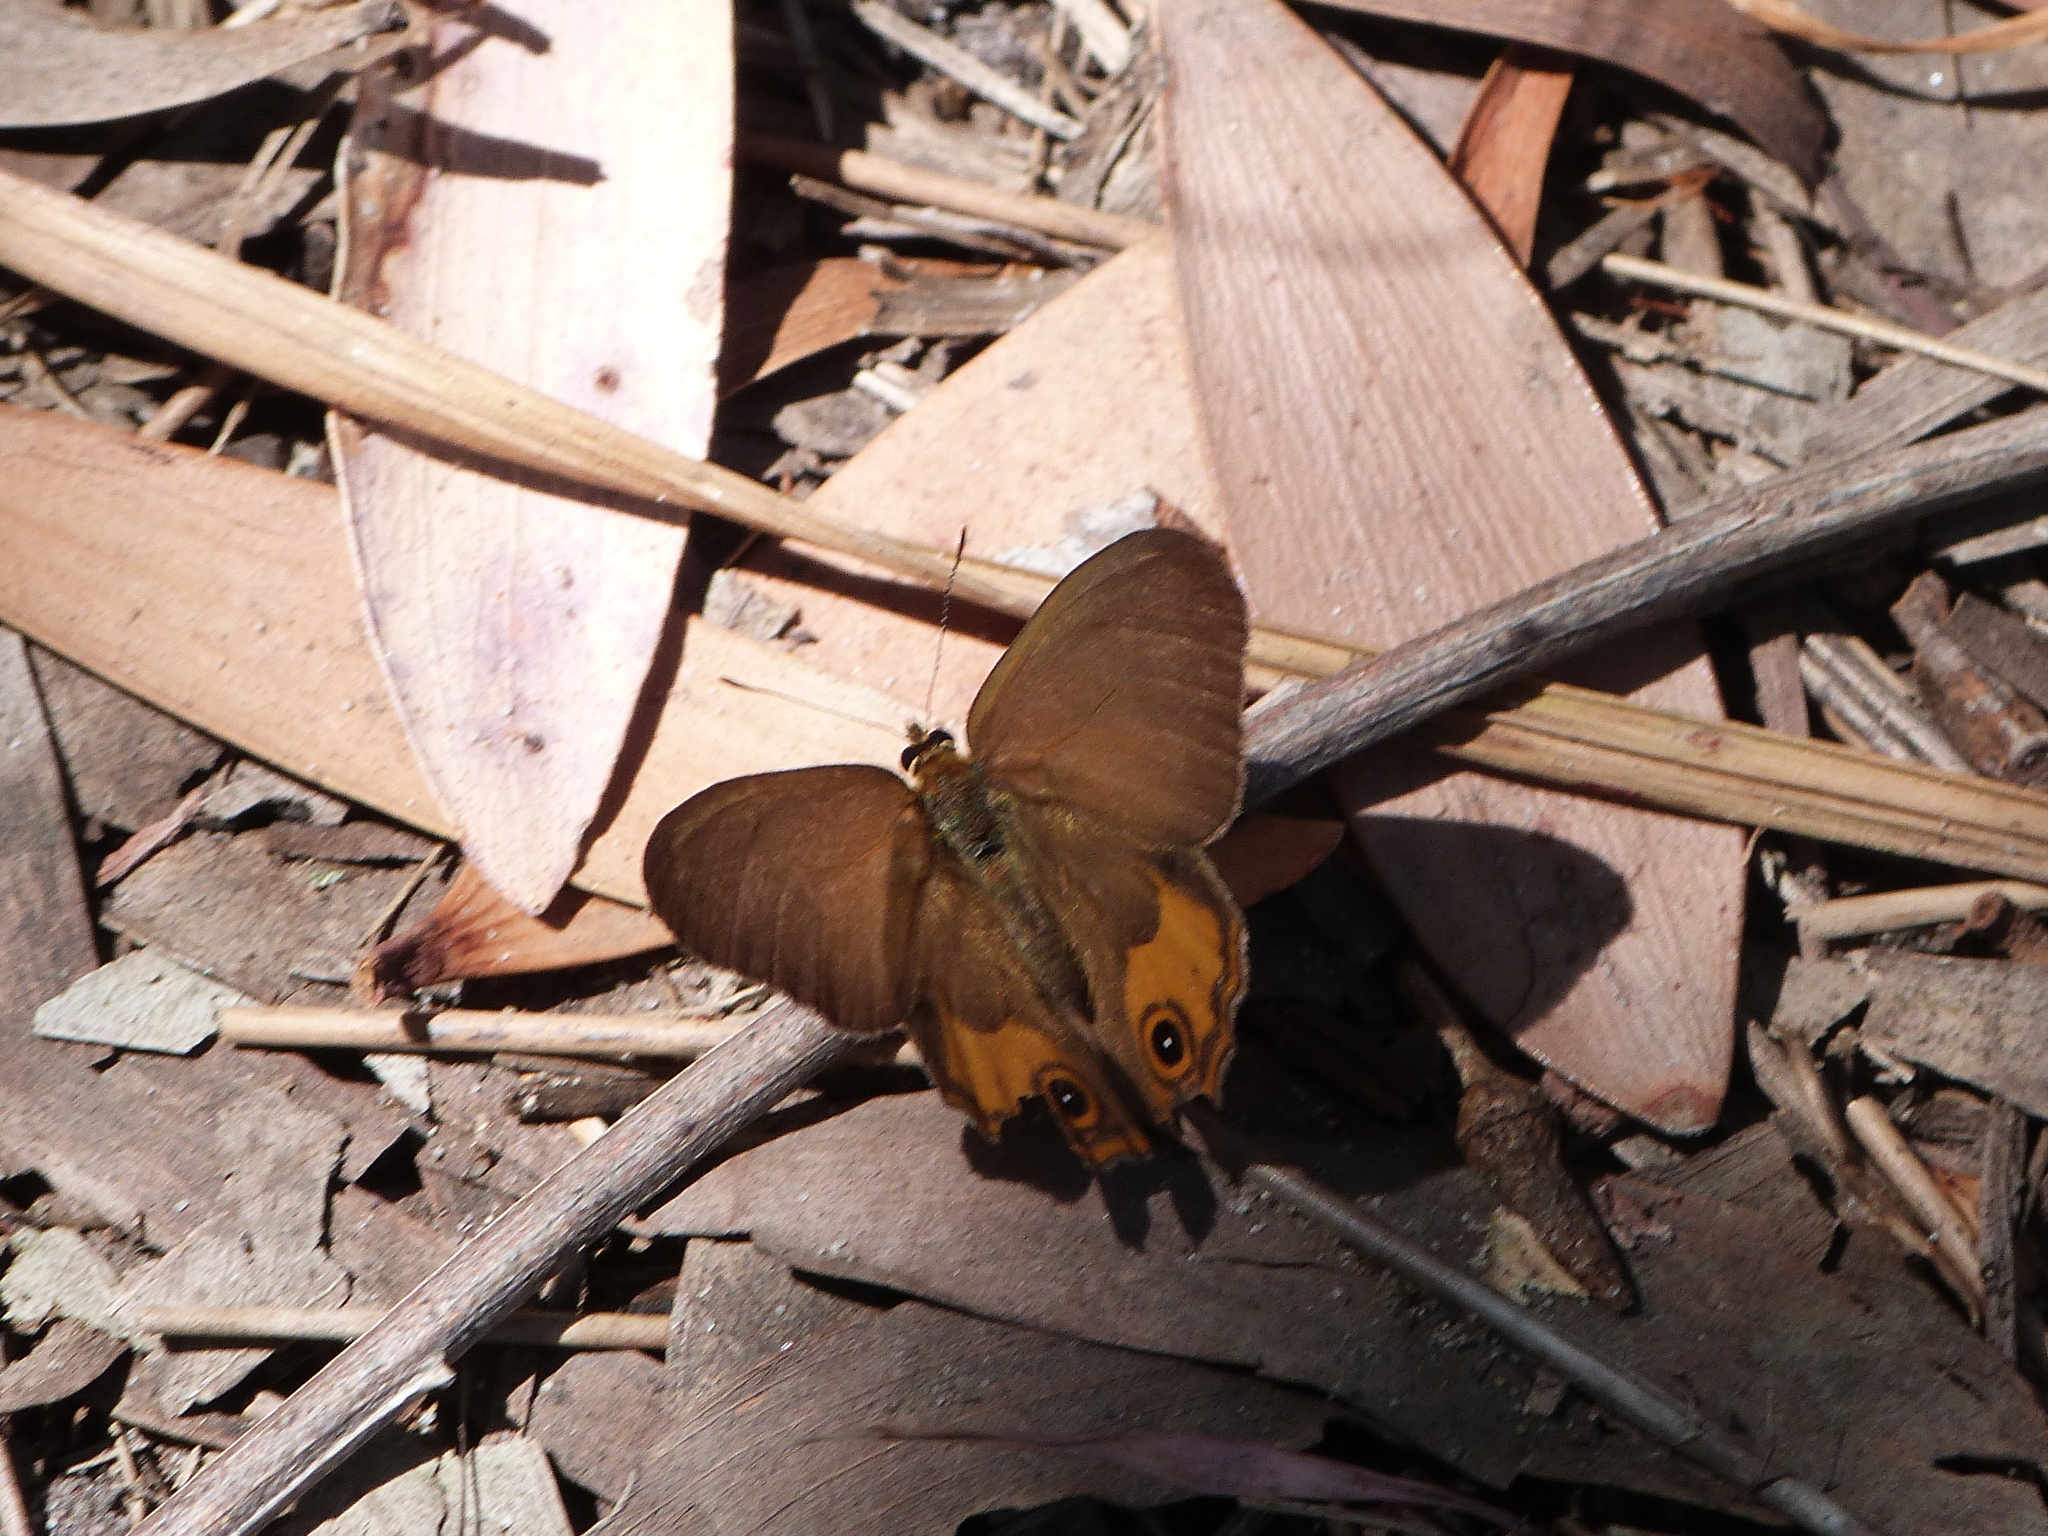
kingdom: Animalia
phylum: Arthropoda
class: Insecta
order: Lepidoptera
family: Nymphalidae
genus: Hypocysta
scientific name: Hypocysta metirius
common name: Brown ringlet
